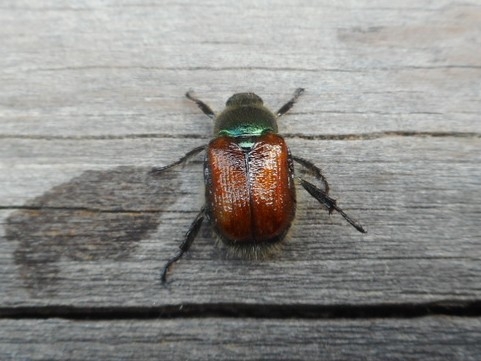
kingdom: Animalia
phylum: Arthropoda
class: Insecta
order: Coleoptera
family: Scarabaeidae
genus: Phyllopertha
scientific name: Phyllopertha horticola
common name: Garden chafer
